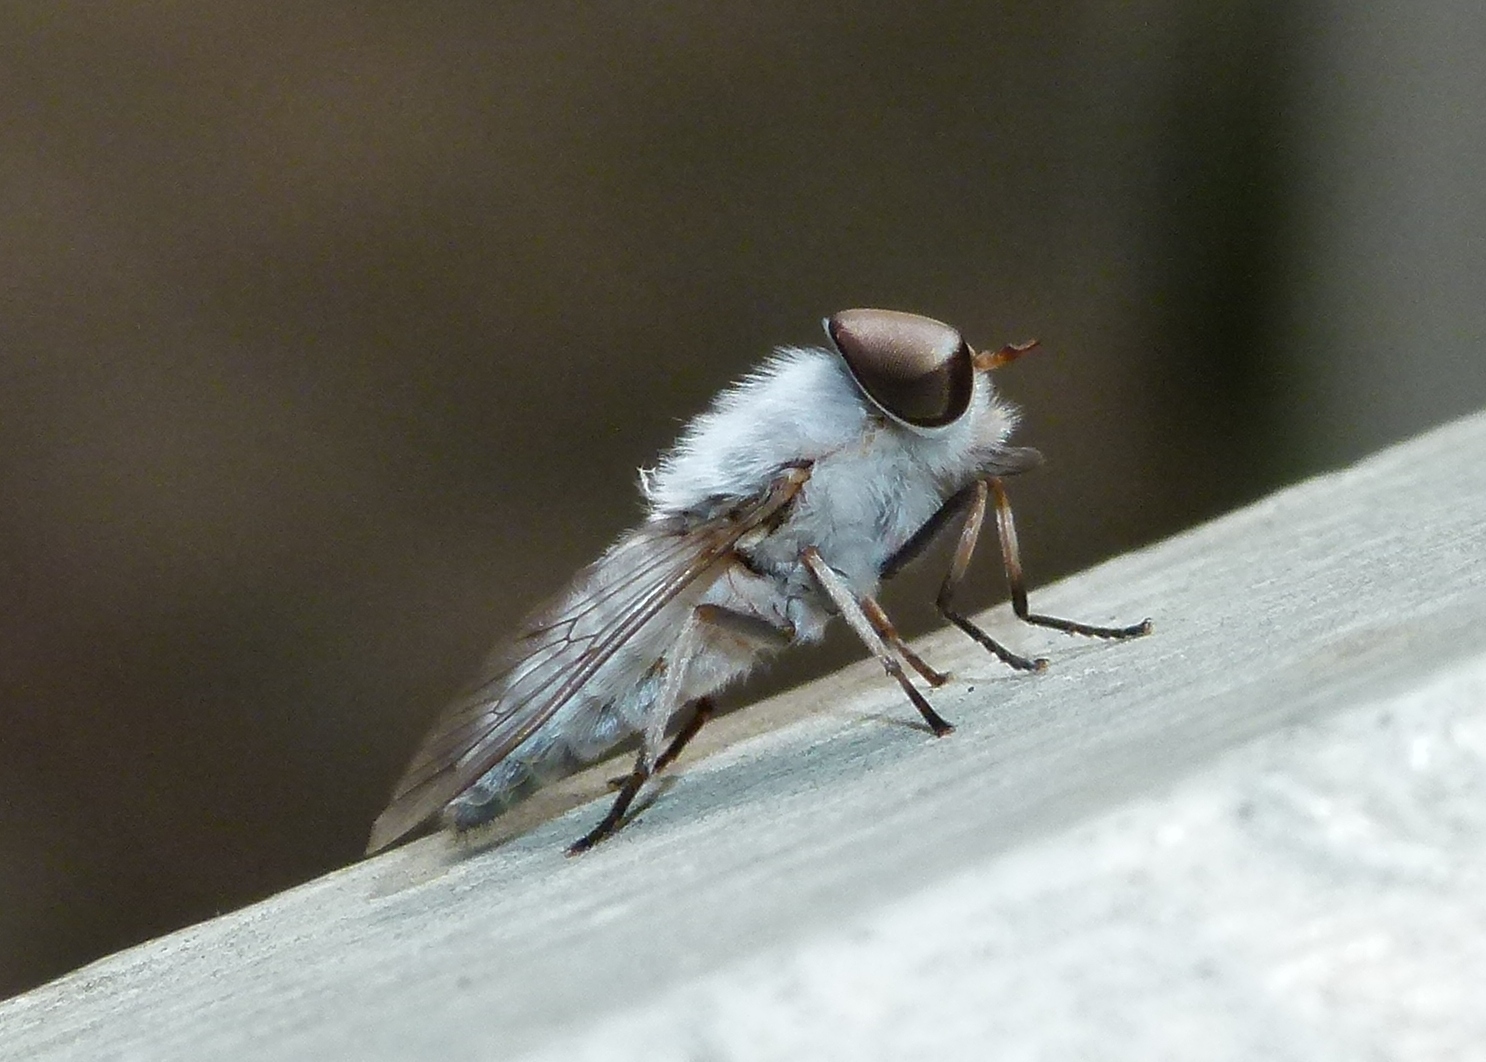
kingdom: Animalia
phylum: Arthropoda
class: Insecta
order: Diptera
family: Tabanidae
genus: Leucotabanus
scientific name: Leucotabanus annulatus
